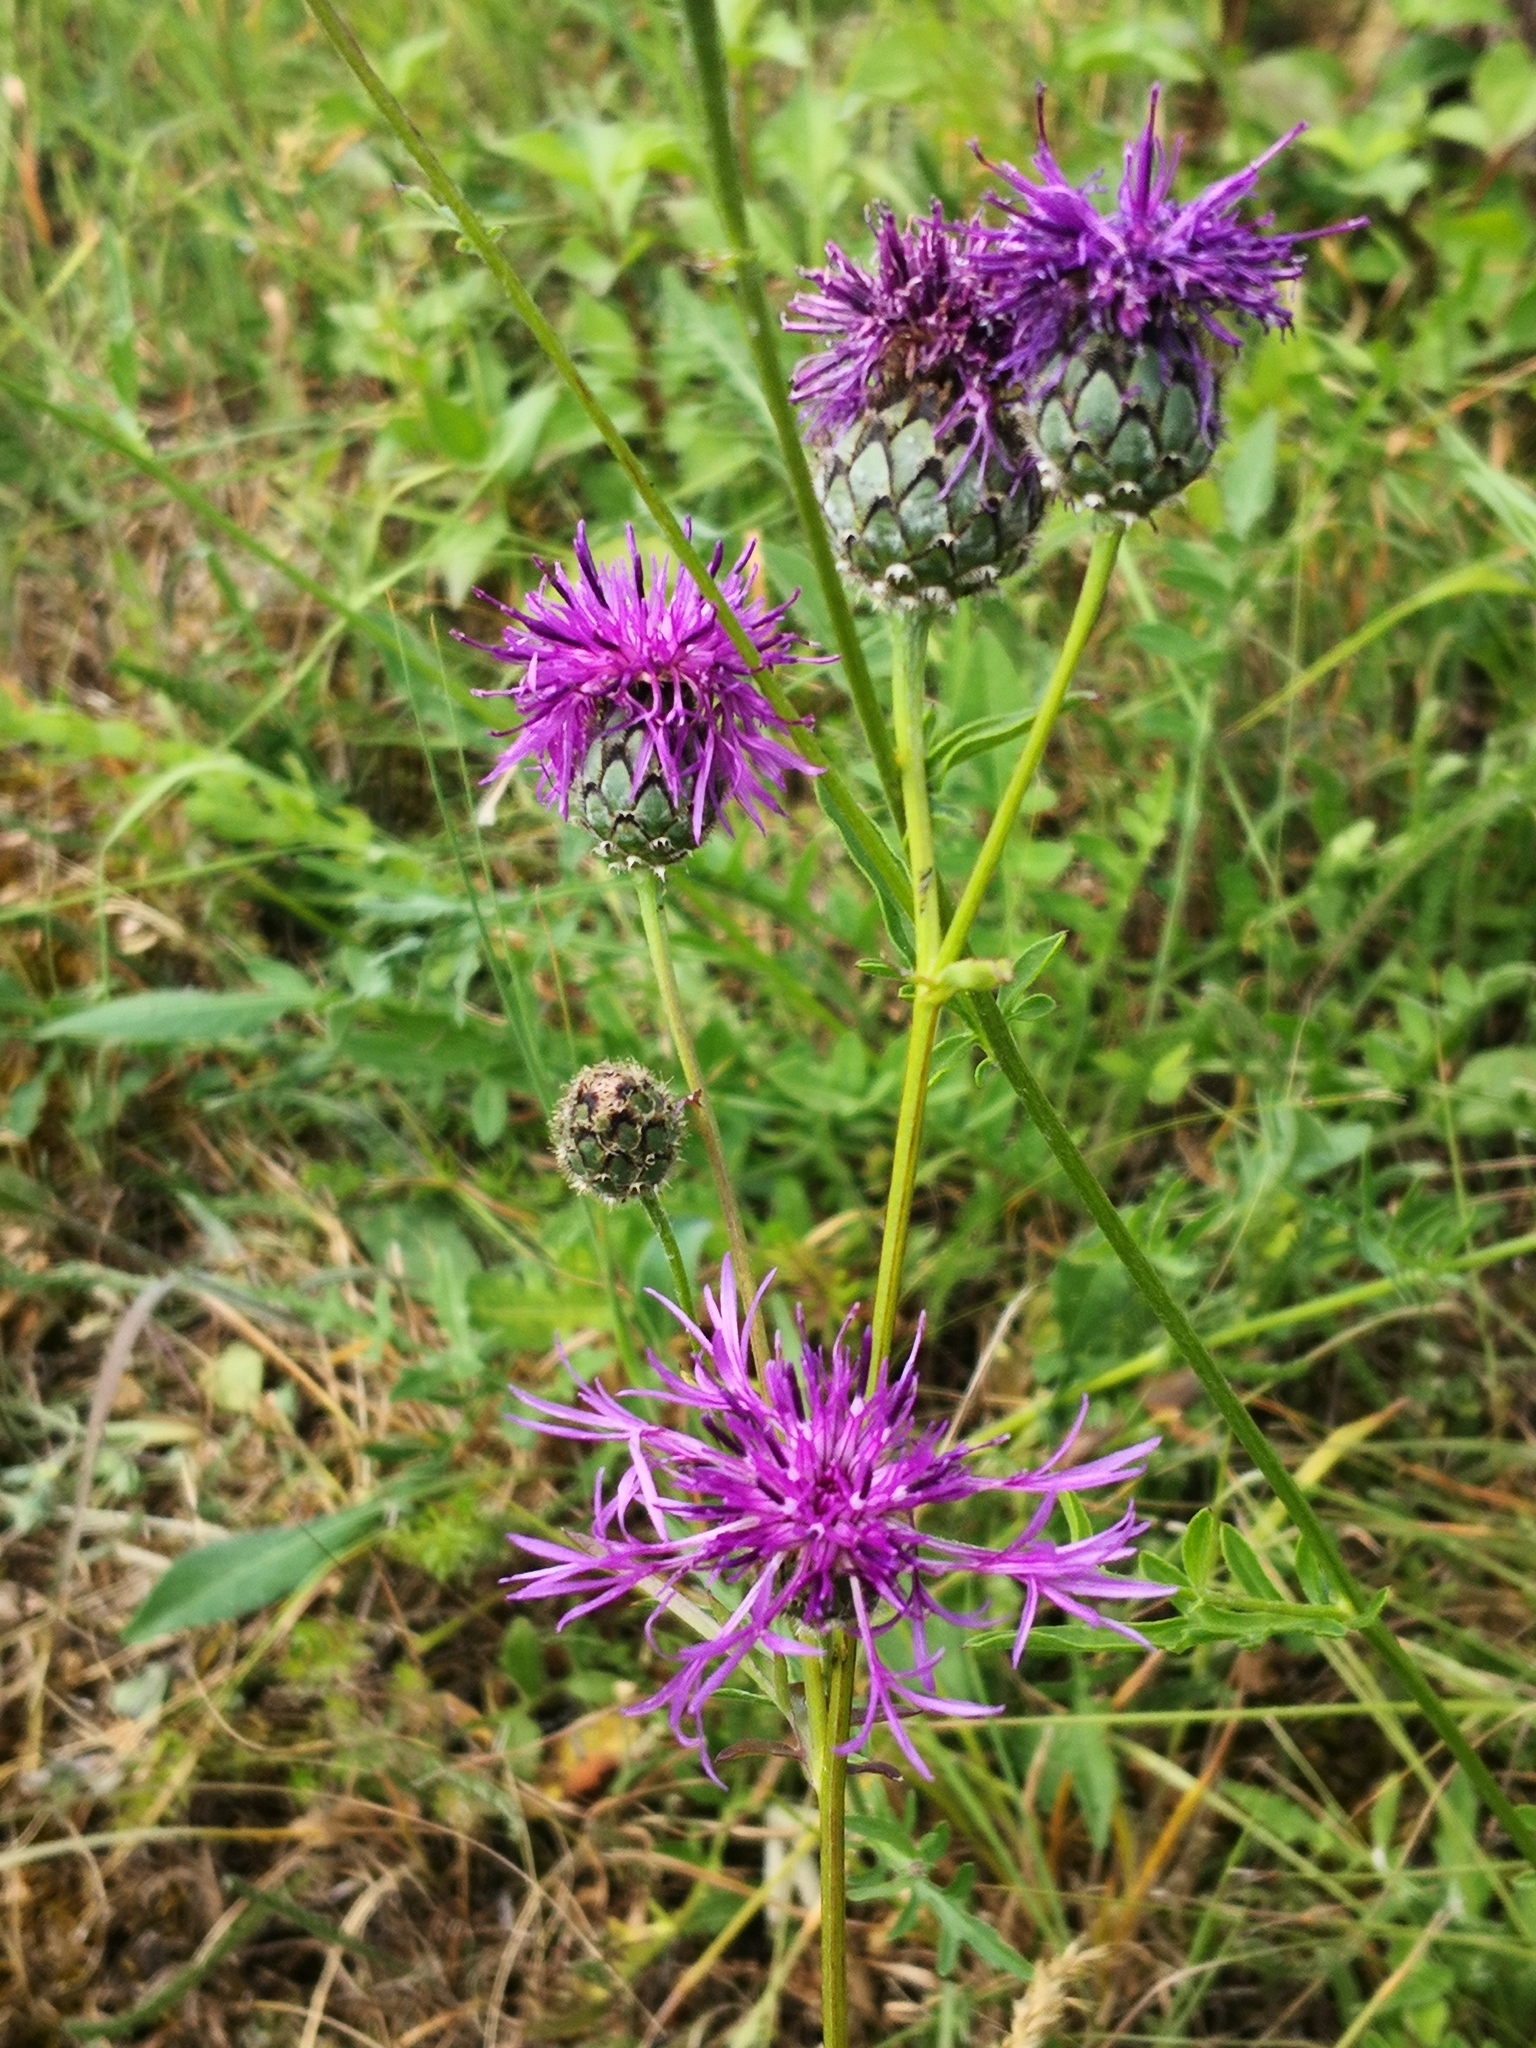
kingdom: Plantae
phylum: Tracheophyta
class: Magnoliopsida
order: Asterales
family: Asteraceae
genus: Centaurea
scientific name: Centaurea scabiosa
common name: Greater knapweed
